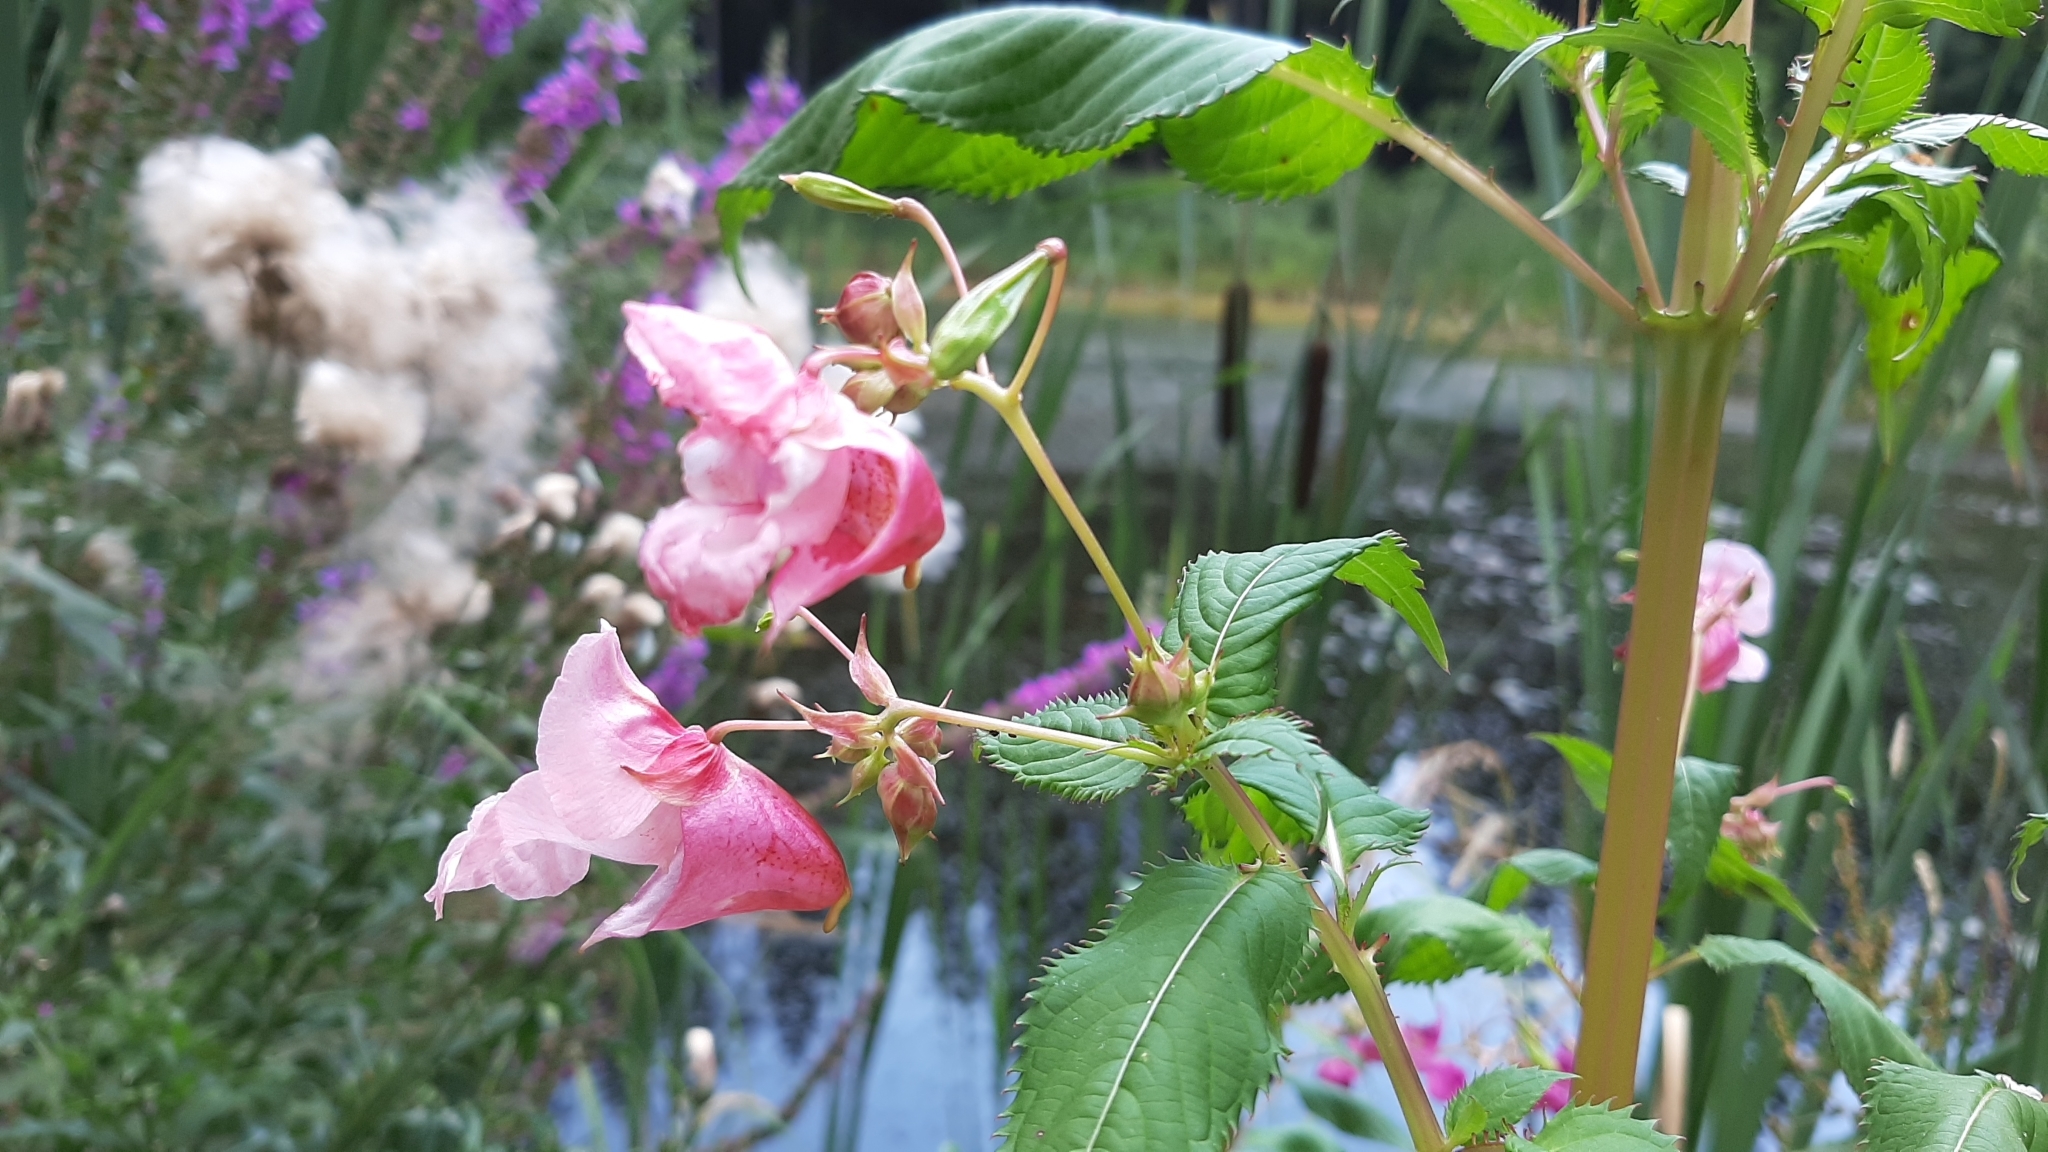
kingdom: Plantae
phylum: Tracheophyta
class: Magnoliopsida
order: Ericales
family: Balsaminaceae
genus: Impatiens
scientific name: Impatiens glandulifera
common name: Himalayan balsam
